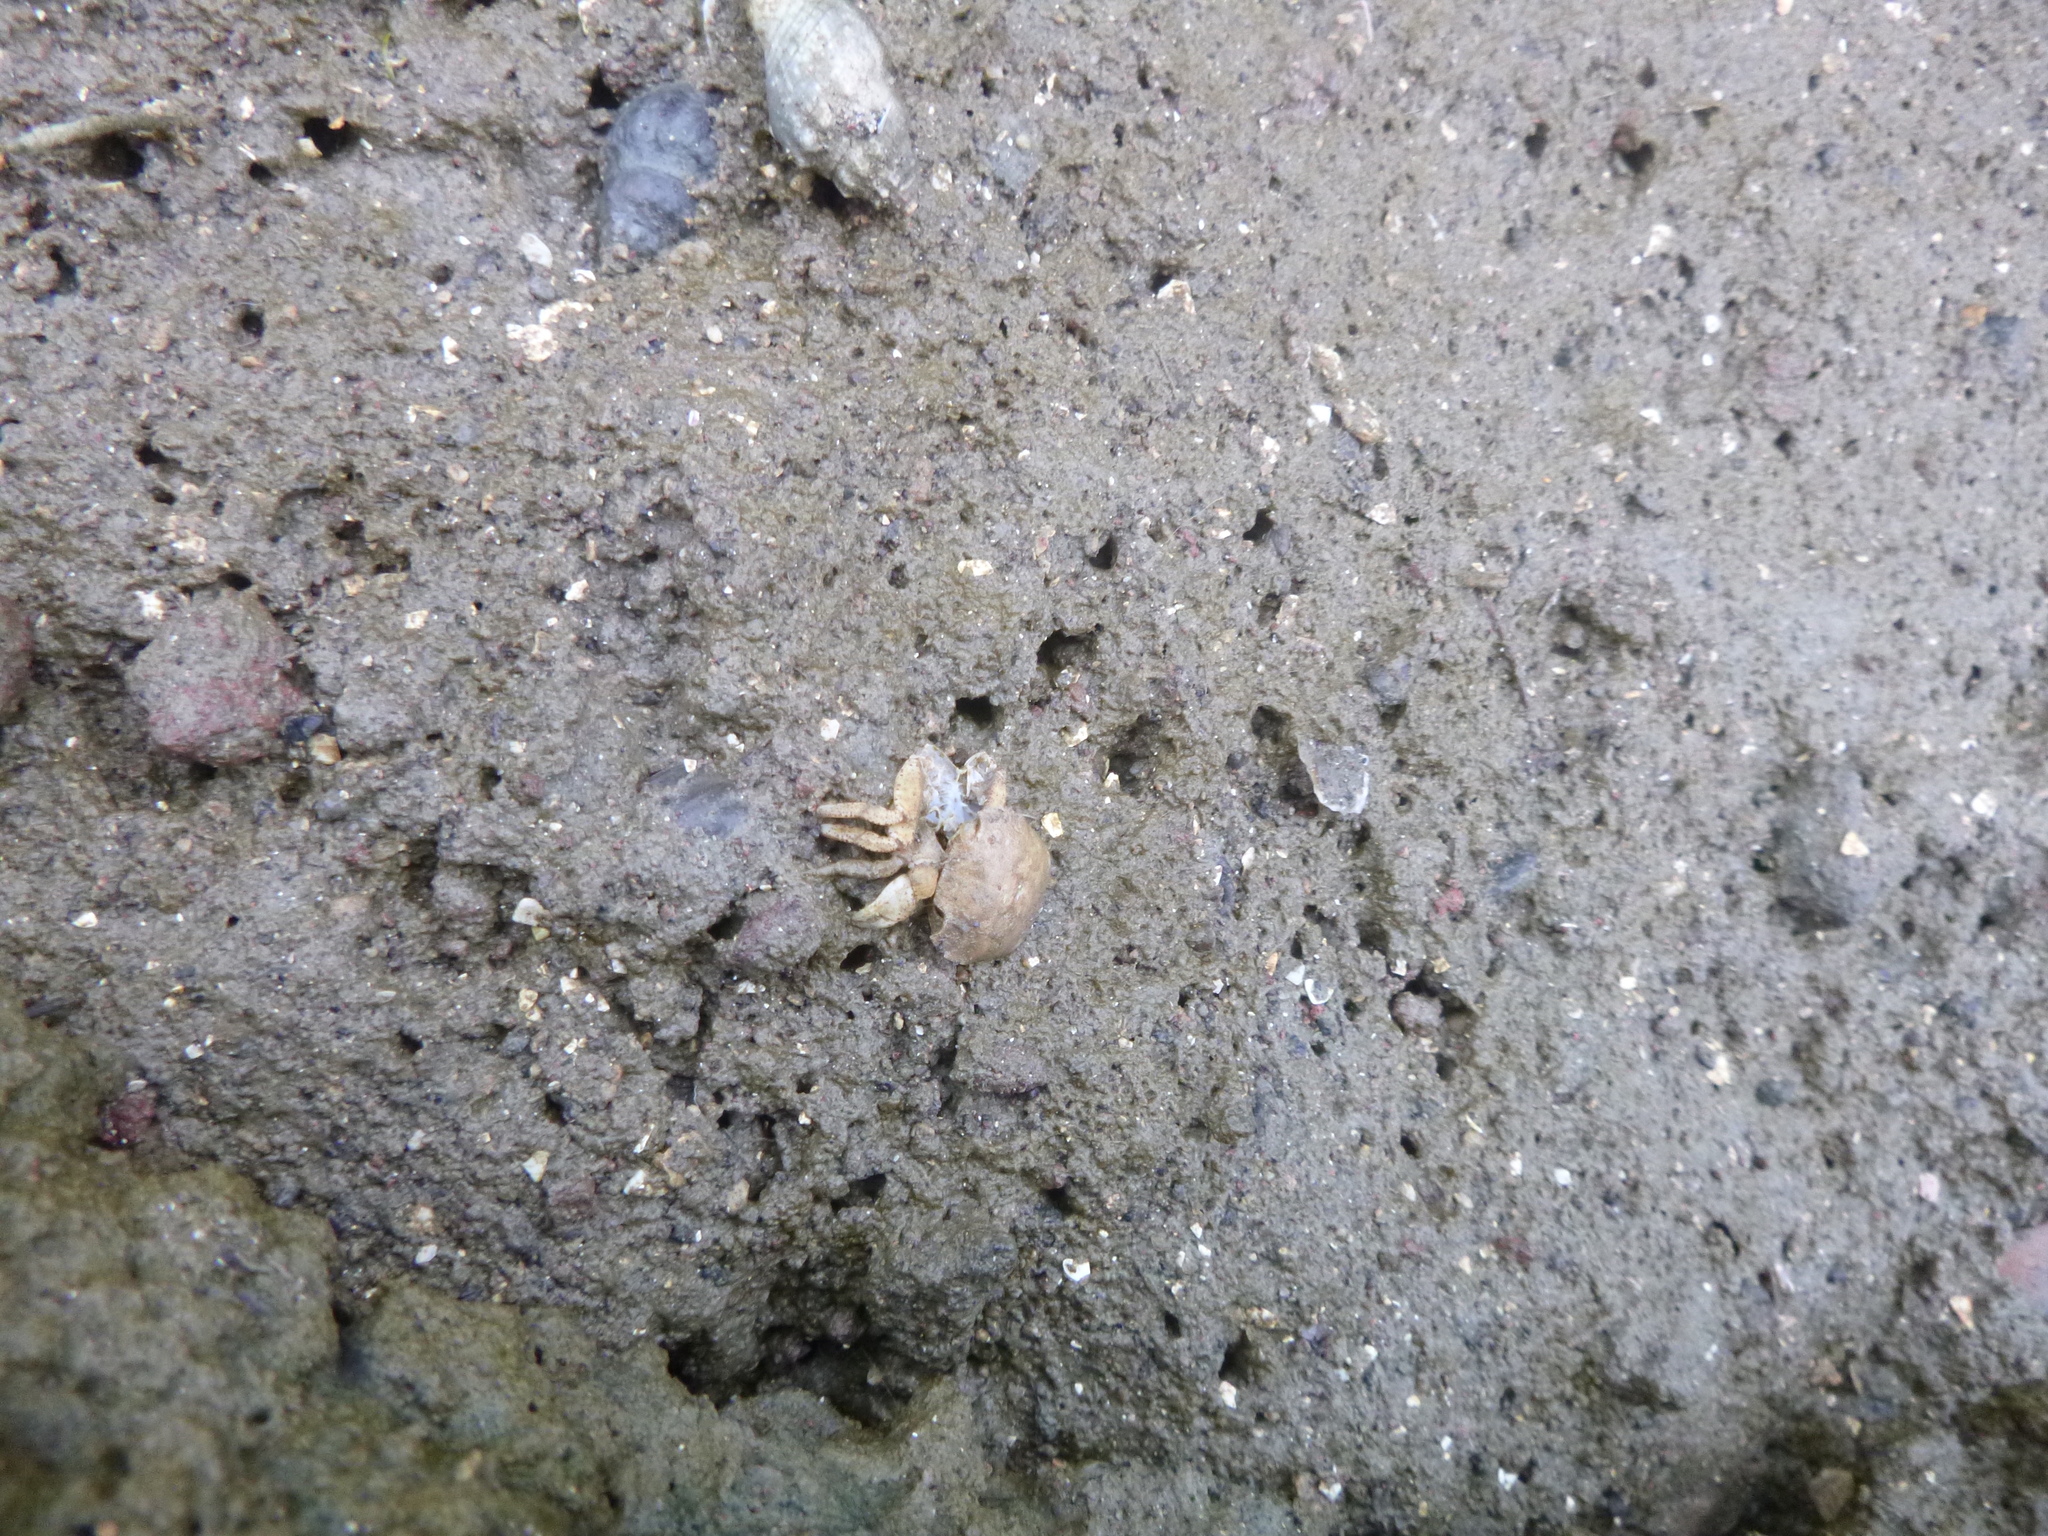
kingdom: Animalia
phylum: Arthropoda
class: Malacostraca
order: Decapoda
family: Varunidae
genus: Hemigrapsus
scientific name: Hemigrapsus crenulatus
